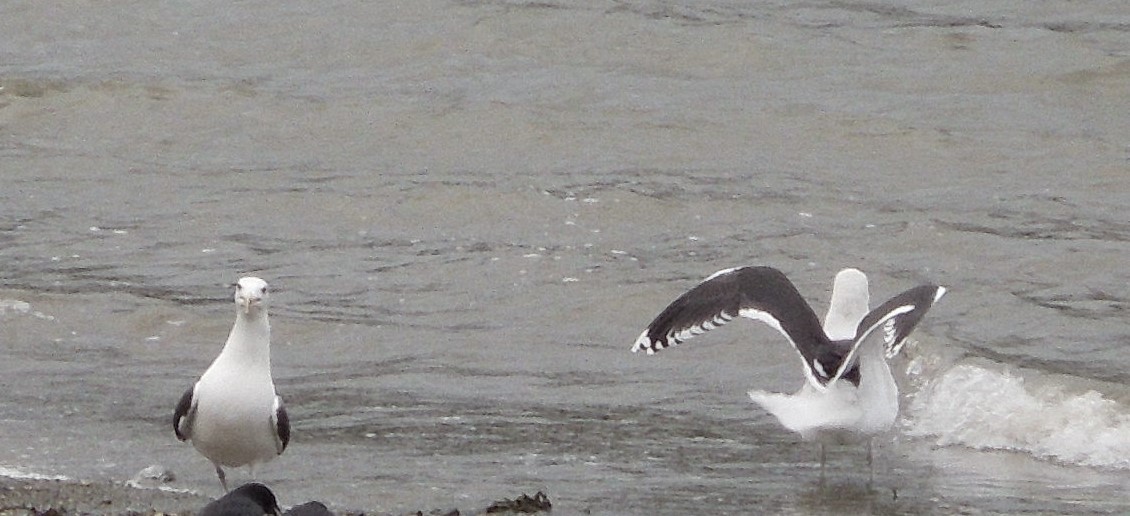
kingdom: Animalia
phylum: Chordata
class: Aves
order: Charadriiformes
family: Laridae
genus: Larus
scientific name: Larus marinus
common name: Great black-backed gull
